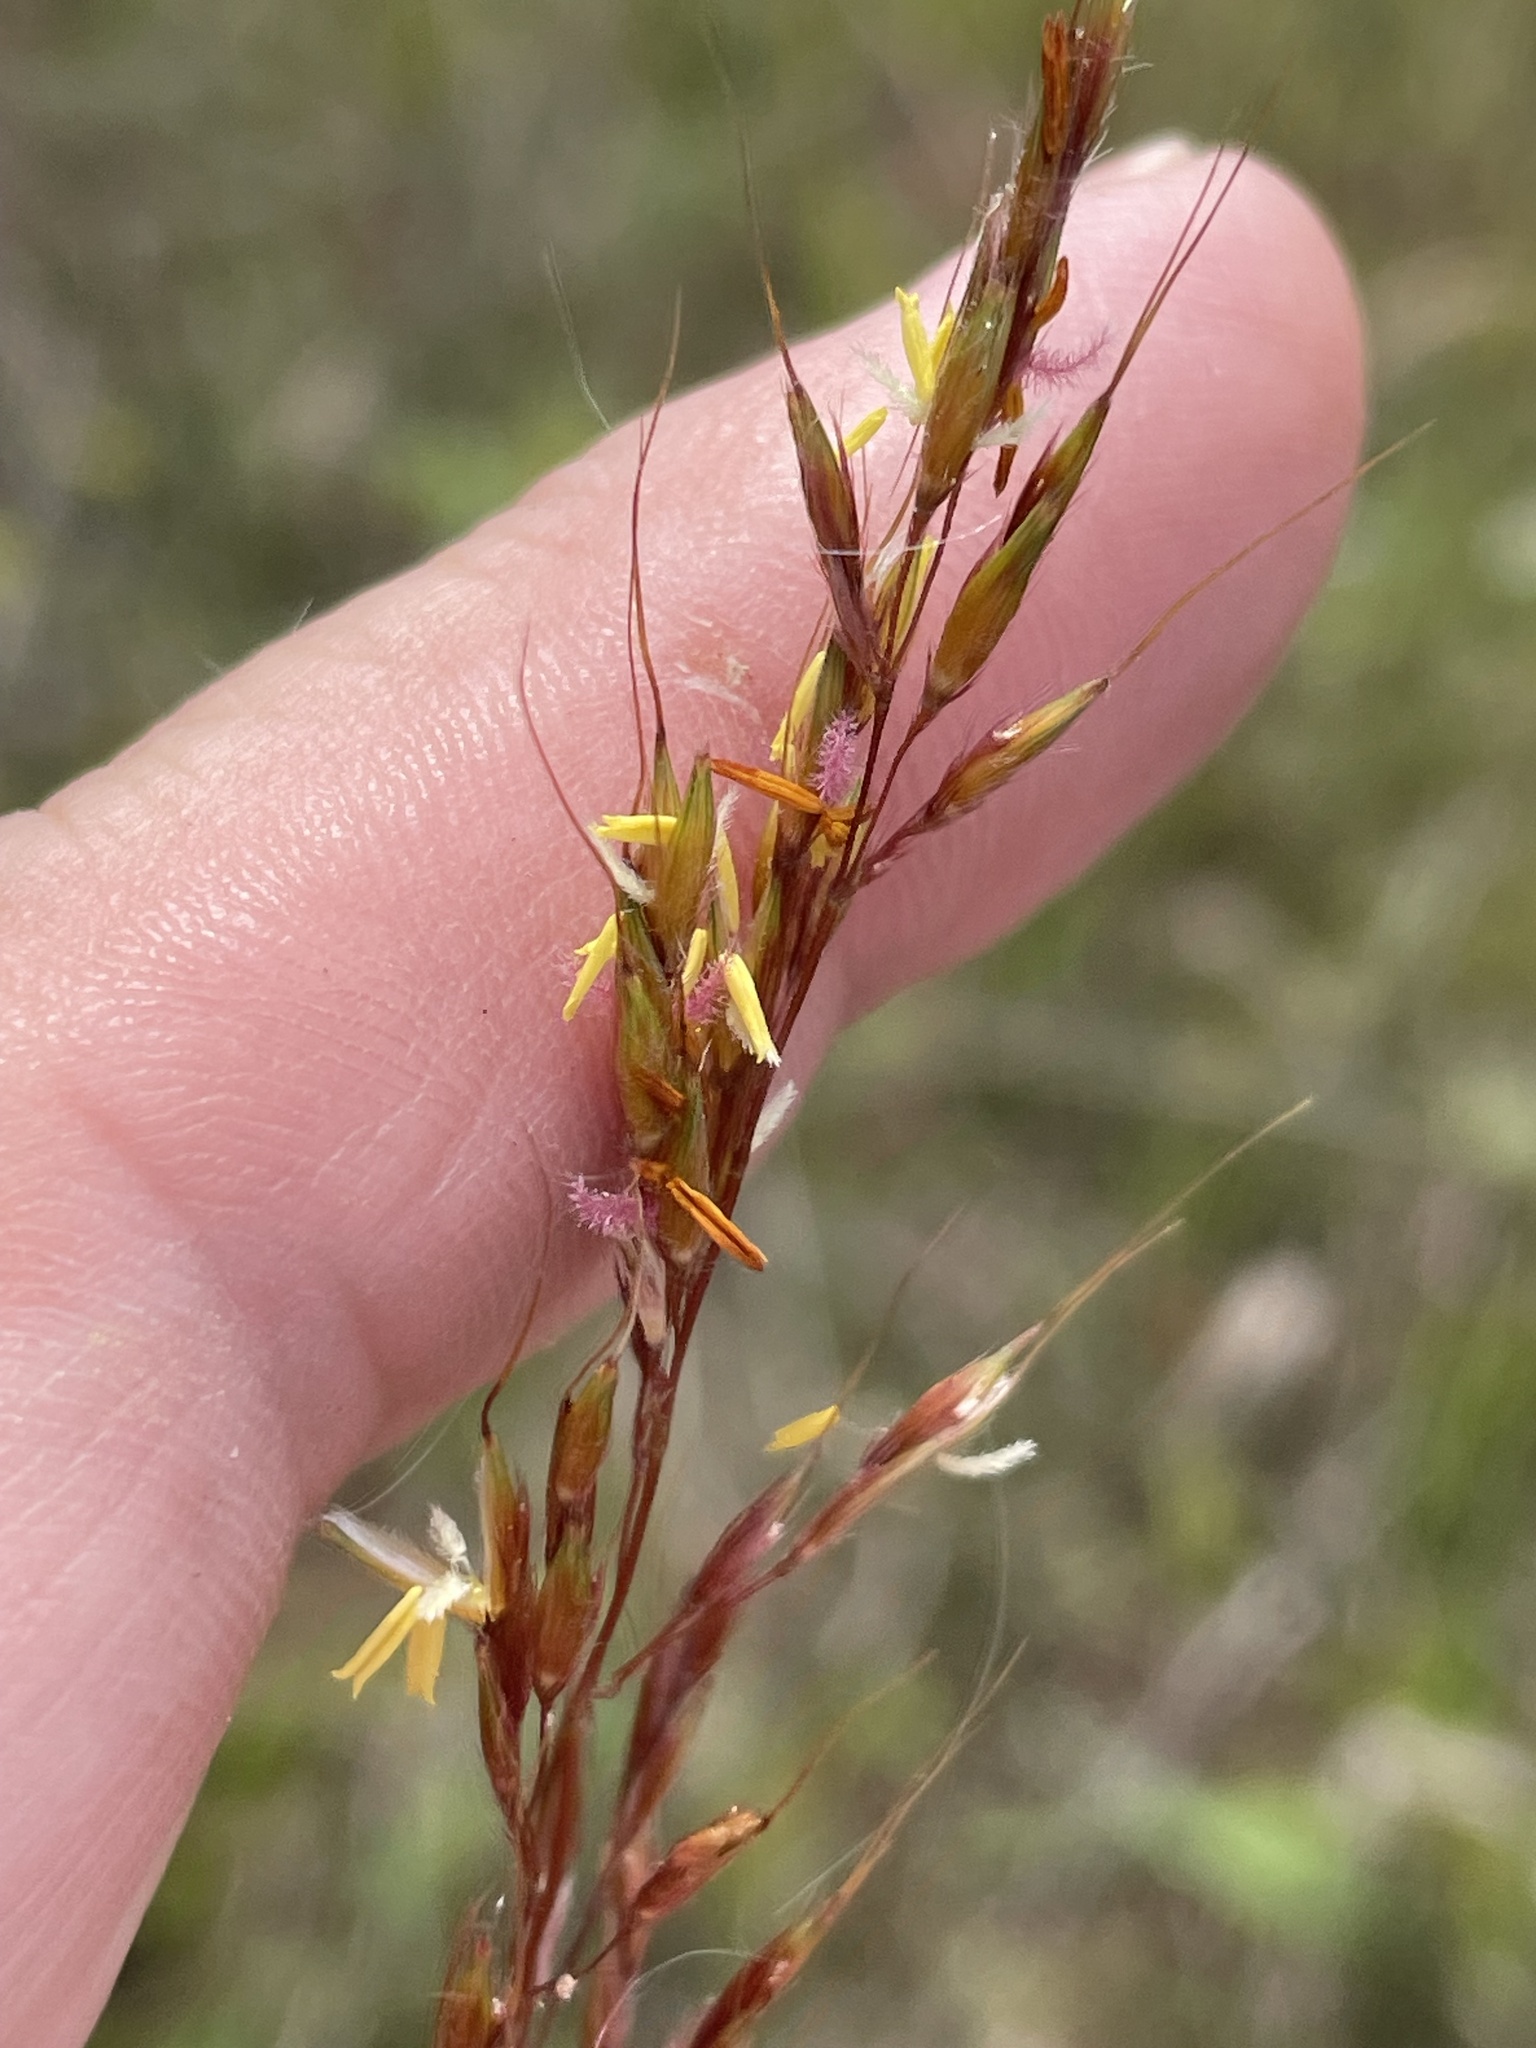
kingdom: Plantae
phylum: Tracheophyta
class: Liliopsida
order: Poales
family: Poaceae
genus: Sorghastrum
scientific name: Sorghastrum nutans
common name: Indian grass
